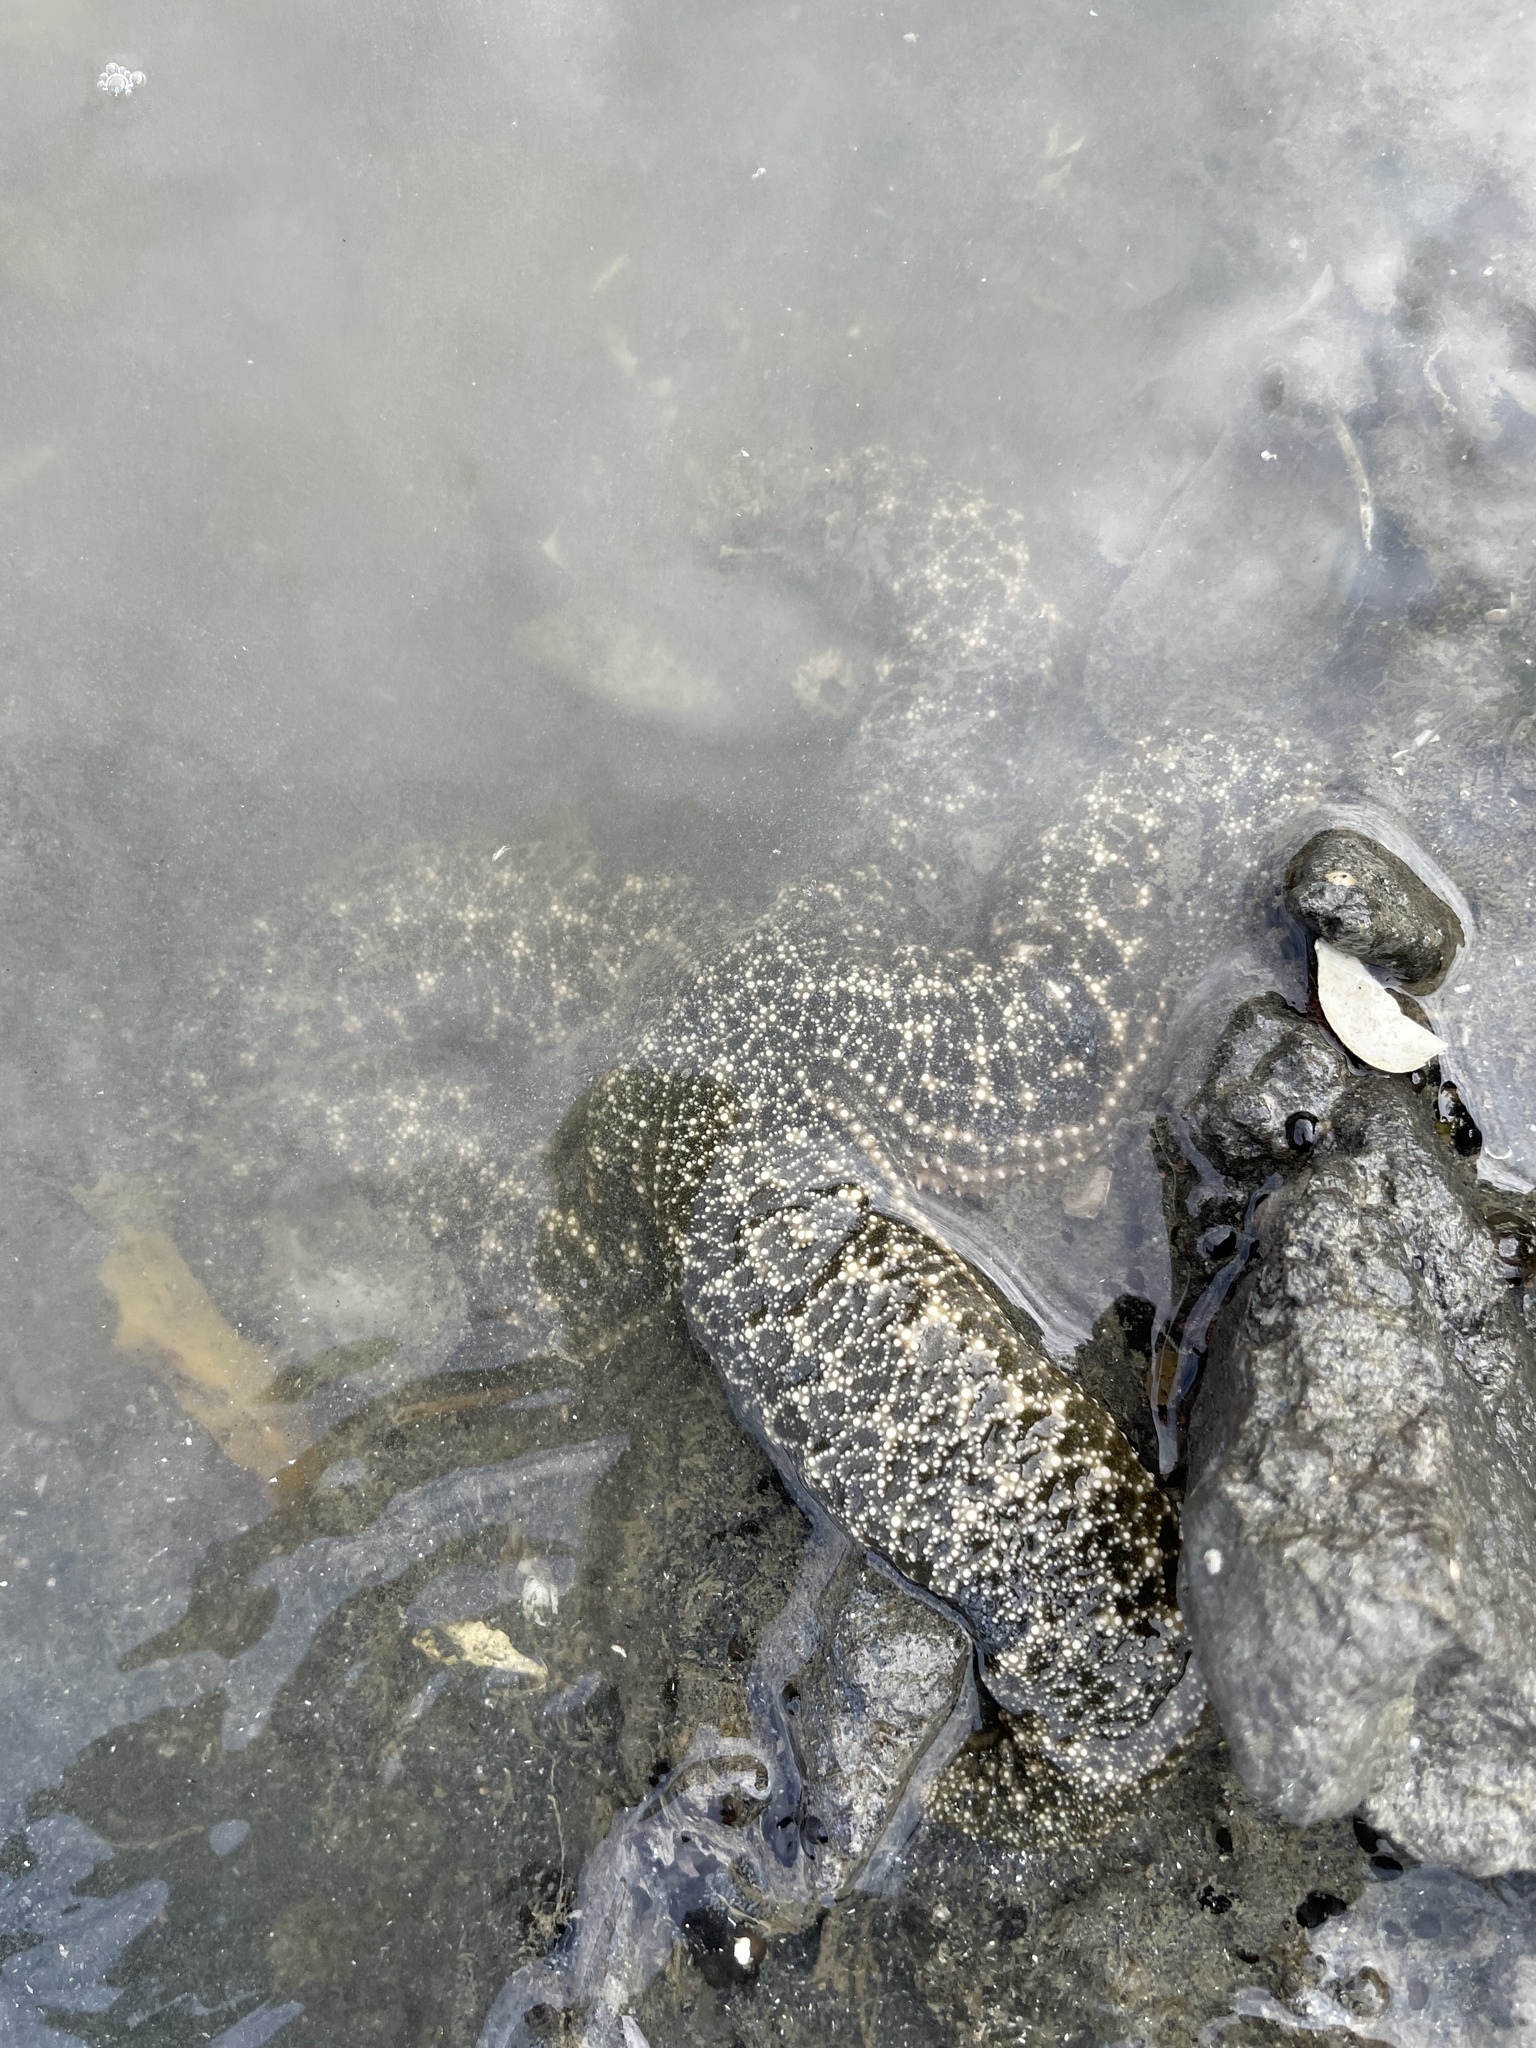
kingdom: Animalia
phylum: Echinodermata
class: Asteroidea
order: Forcipulatida
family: Asteriidae
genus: Evasterias
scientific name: Evasterias troschelii
